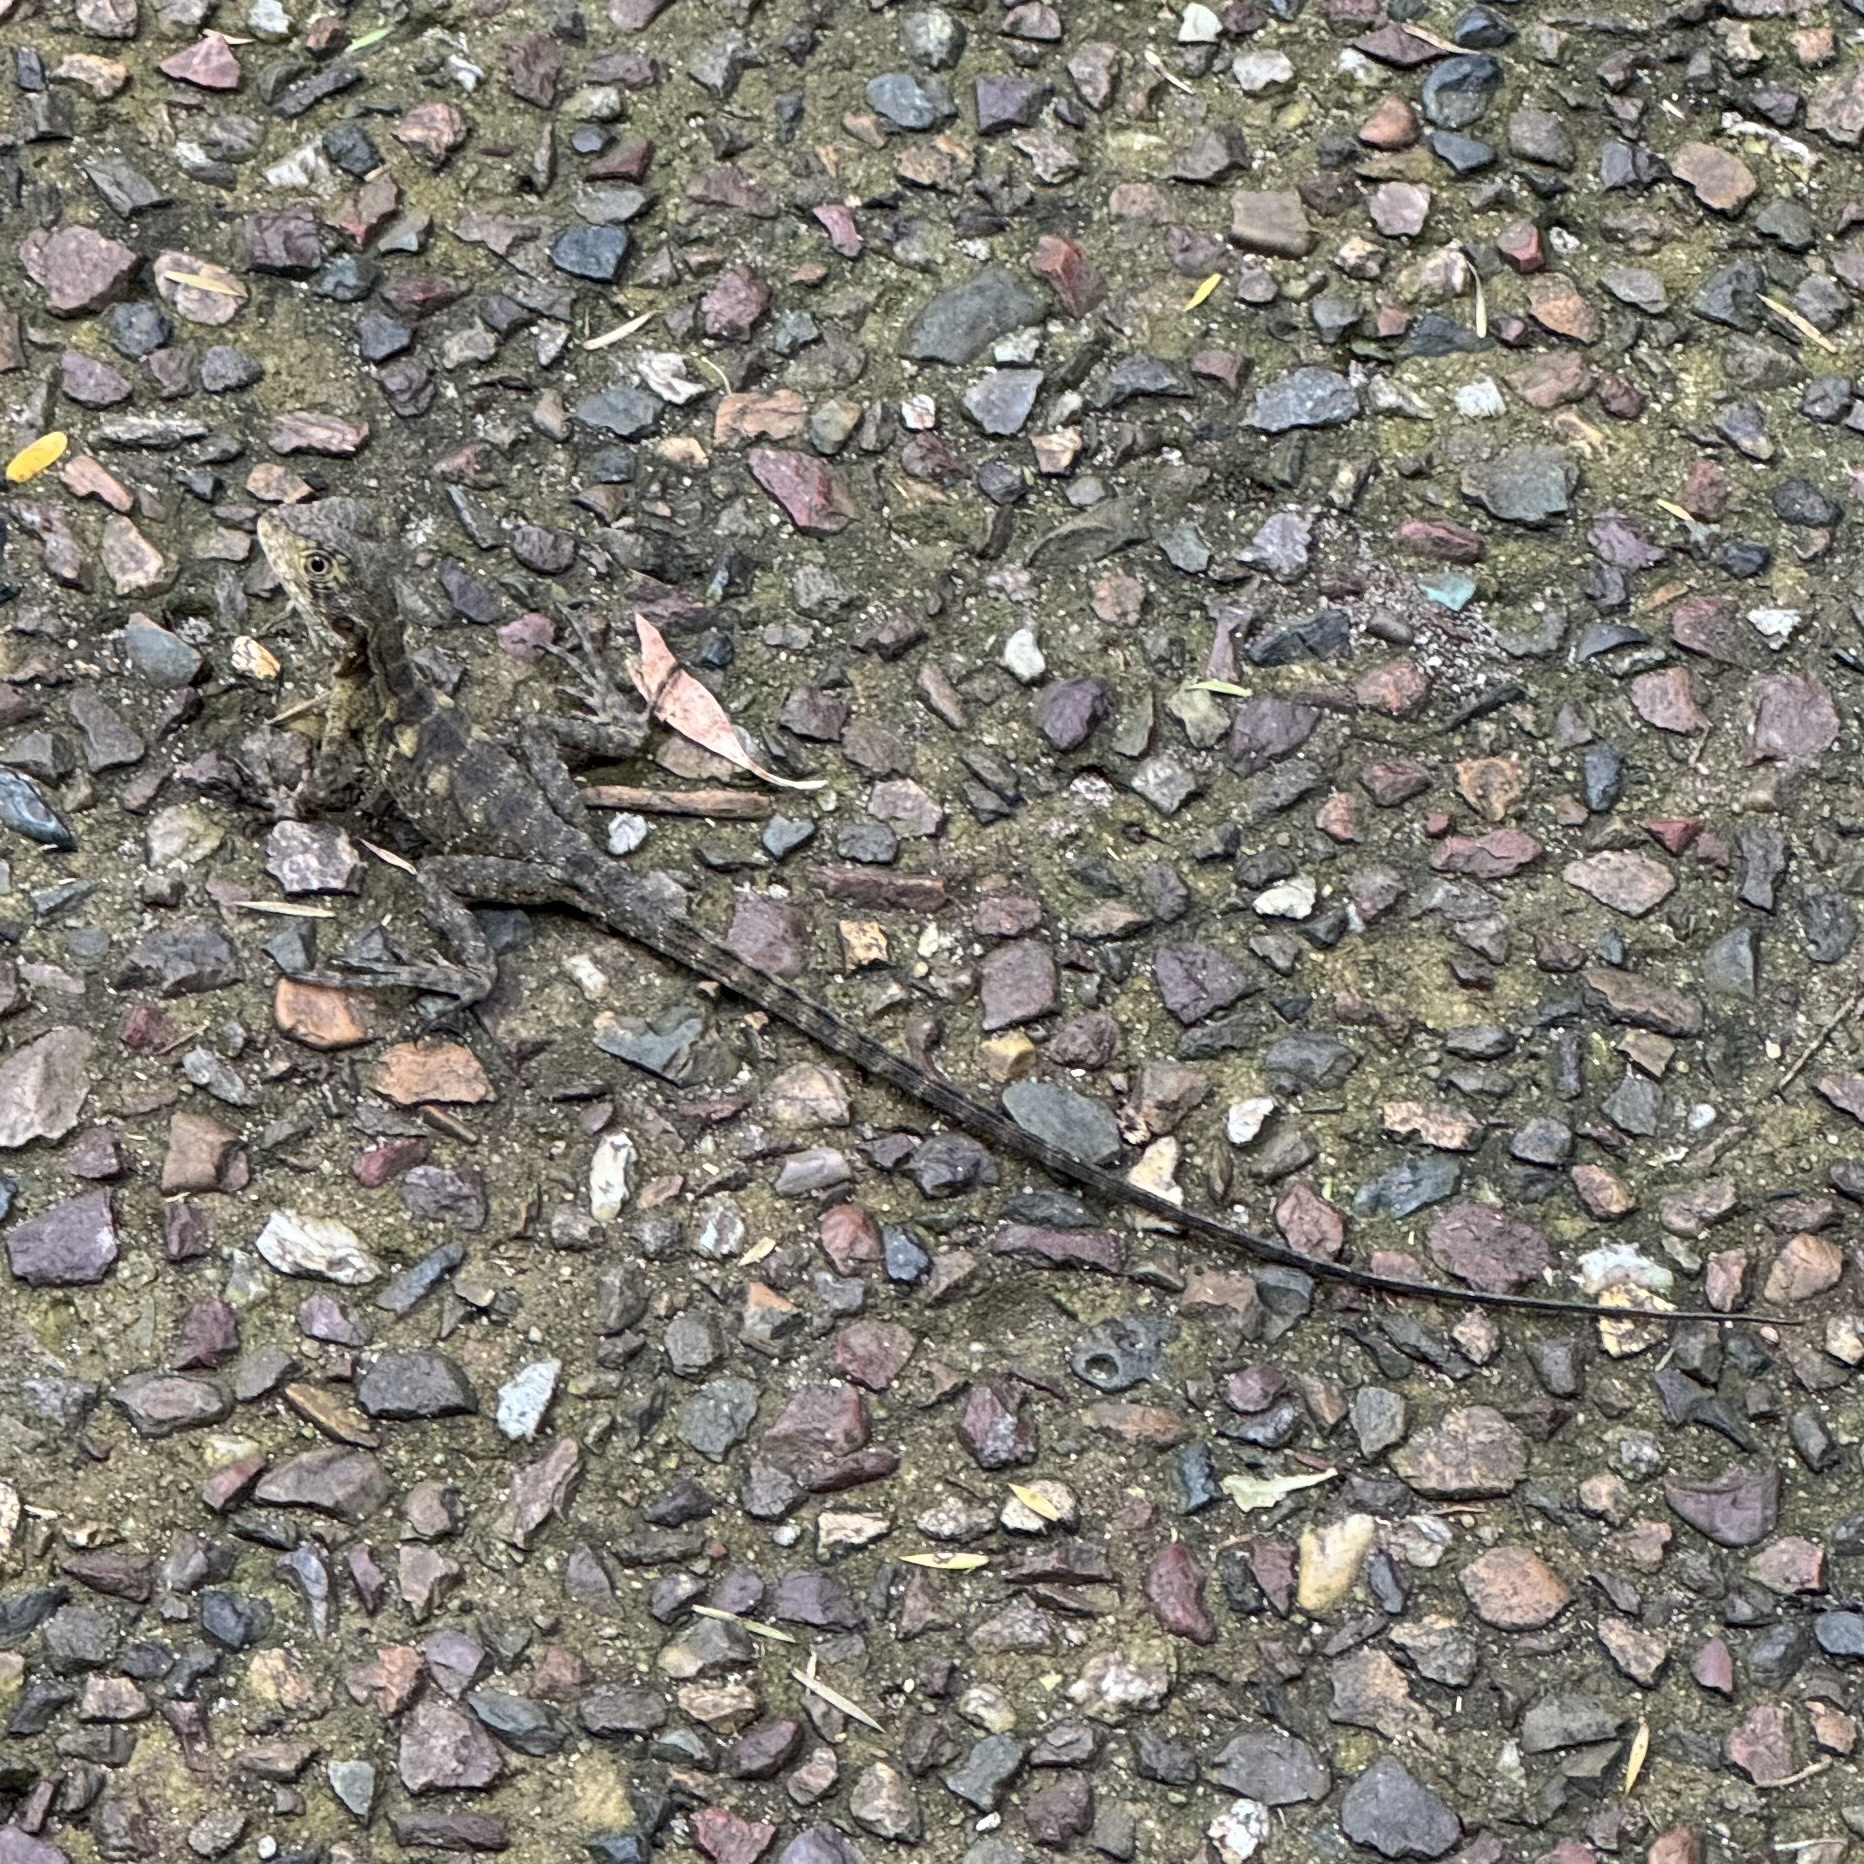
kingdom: Animalia
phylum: Chordata
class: Squamata
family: Agamidae
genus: Intellagama
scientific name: Intellagama lesueurii
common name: Eastern water dragon
